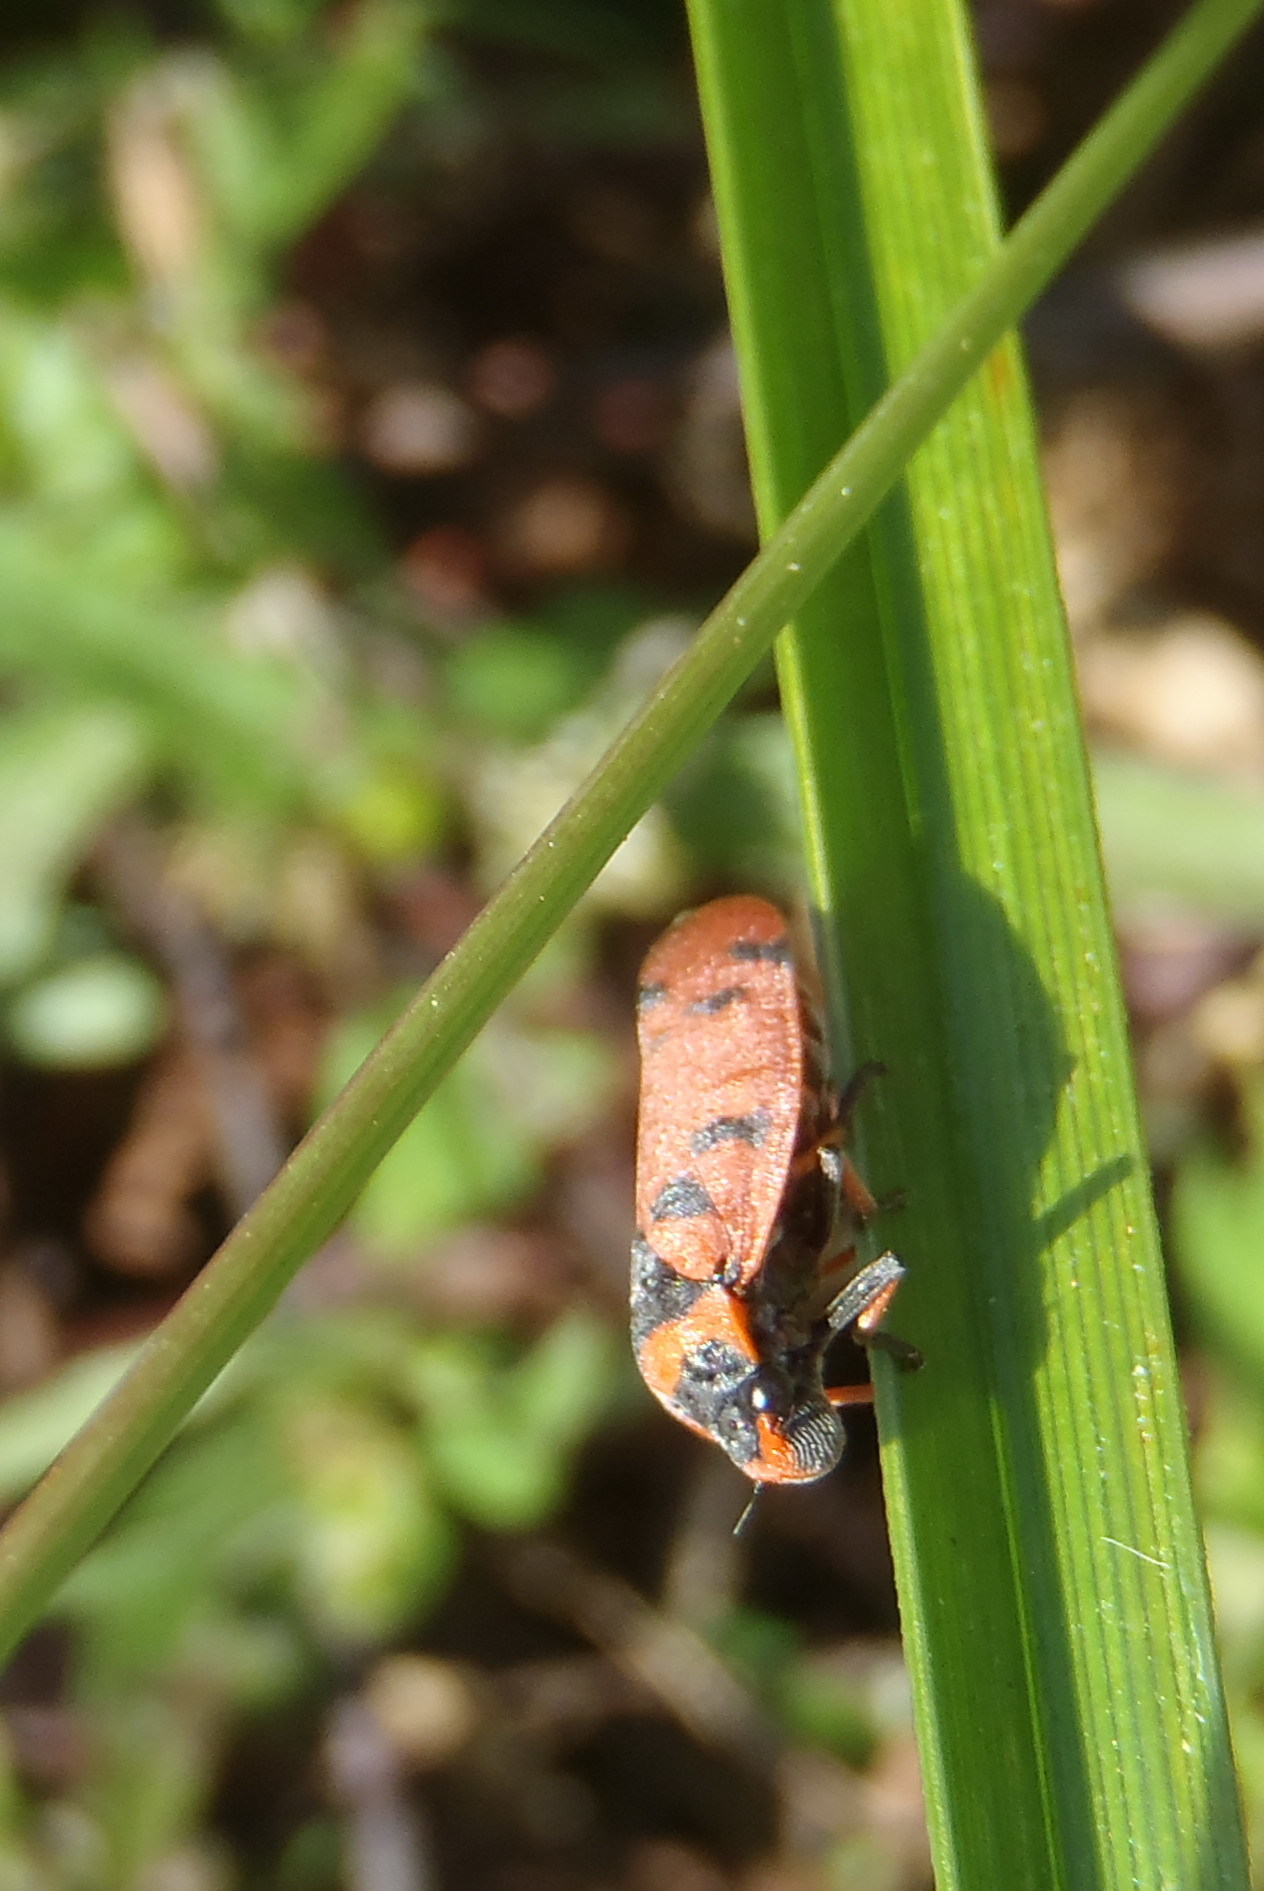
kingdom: Animalia
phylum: Arthropoda
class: Insecta
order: Hemiptera
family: Cercopidae
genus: Locris
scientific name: Locris arithmetica
